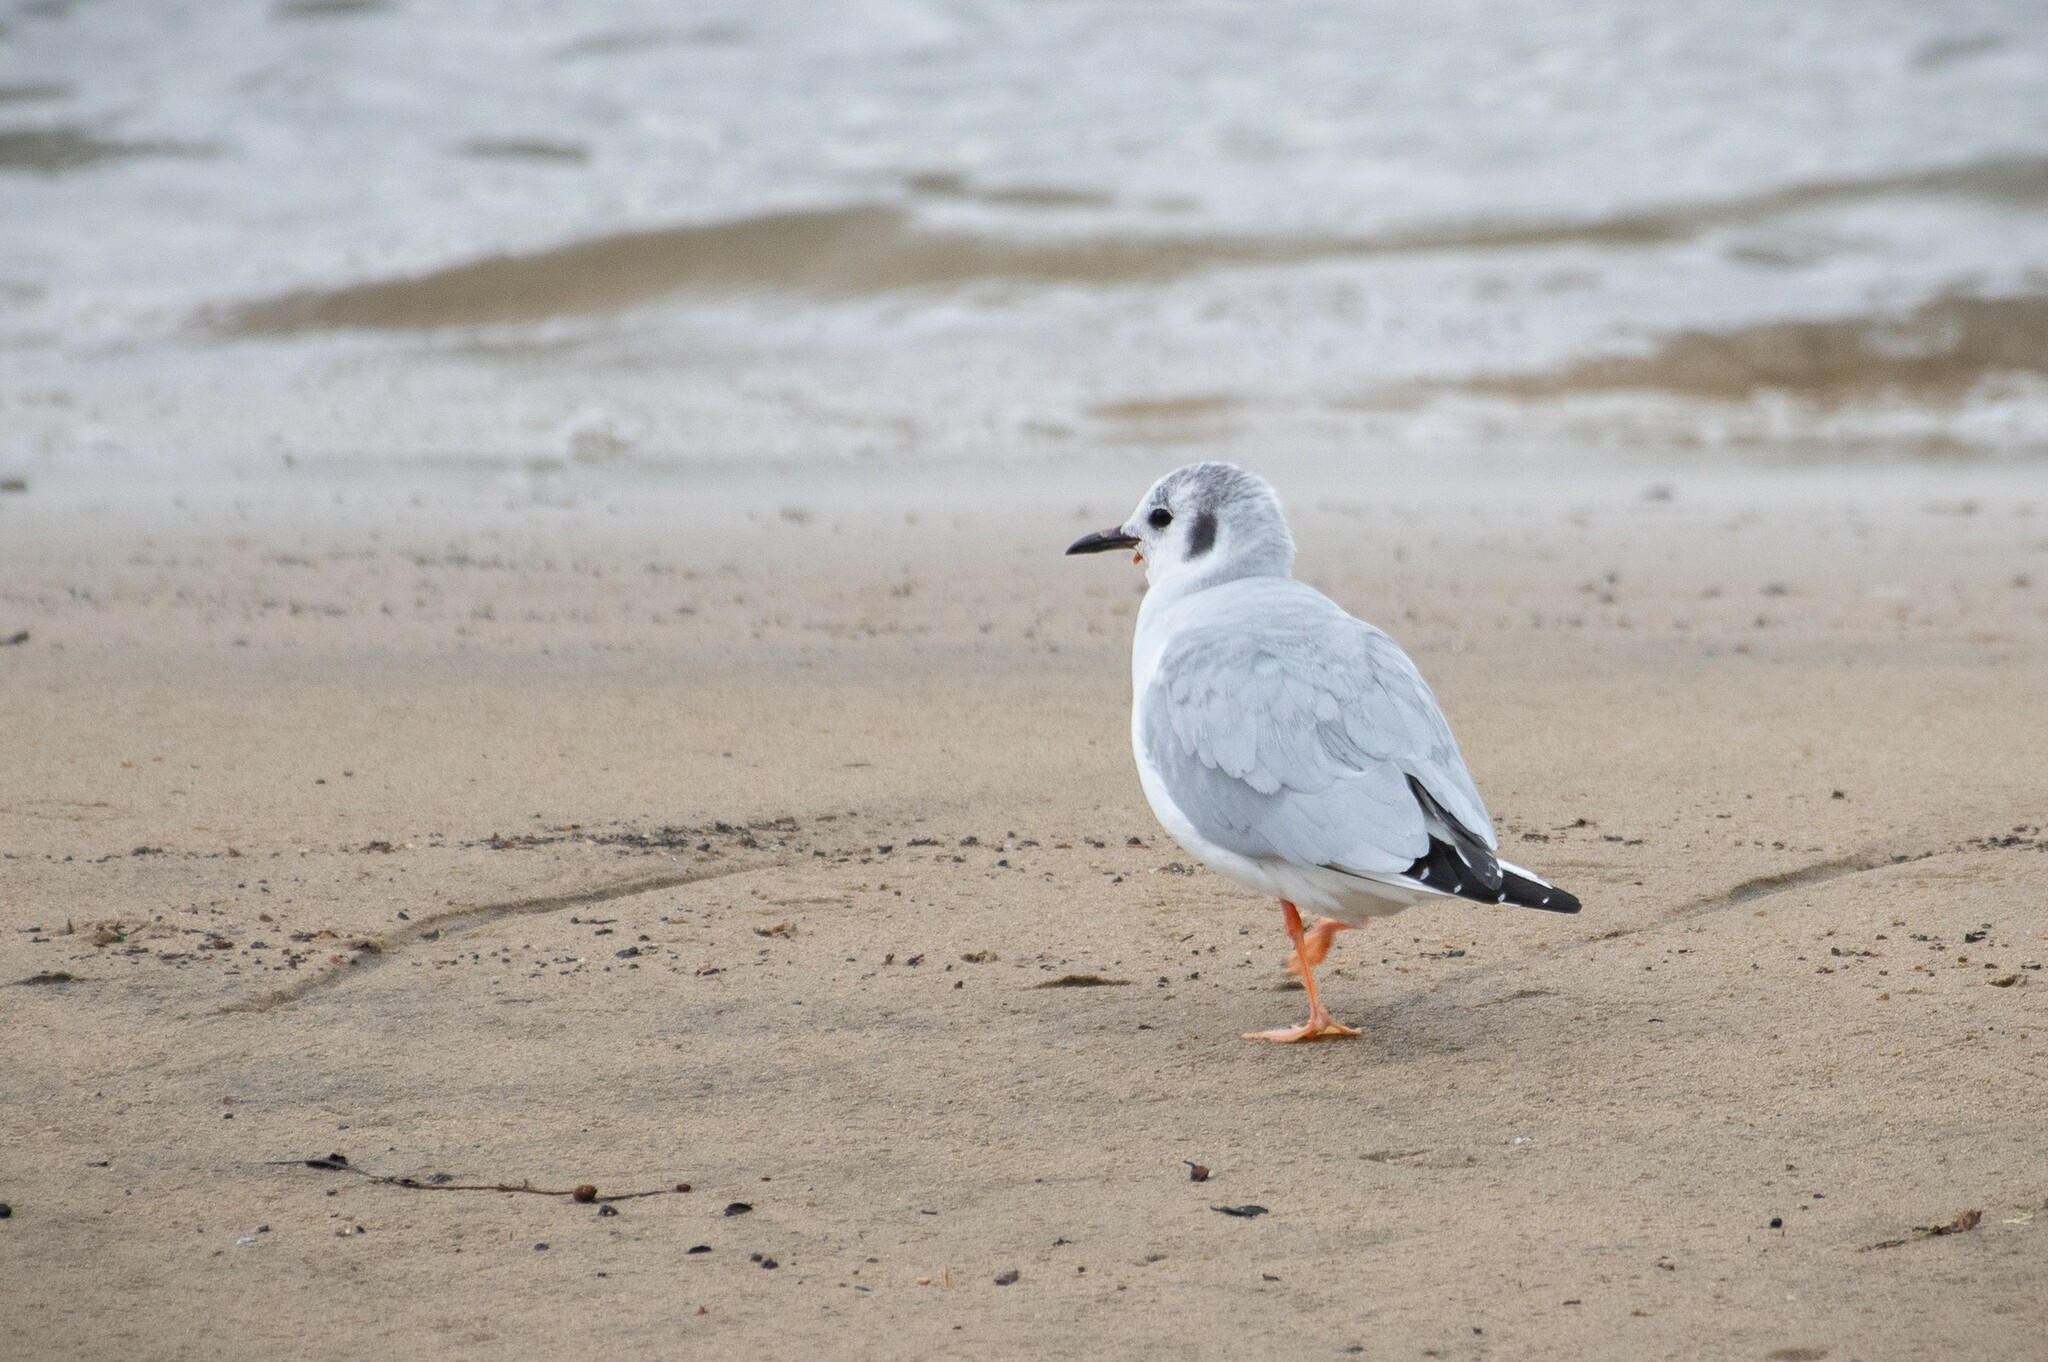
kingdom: Animalia
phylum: Chordata
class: Aves
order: Charadriiformes
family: Laridae
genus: Chroicocephalus
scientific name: Chroicocephalus philadelphia
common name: Bonaparte's gull
